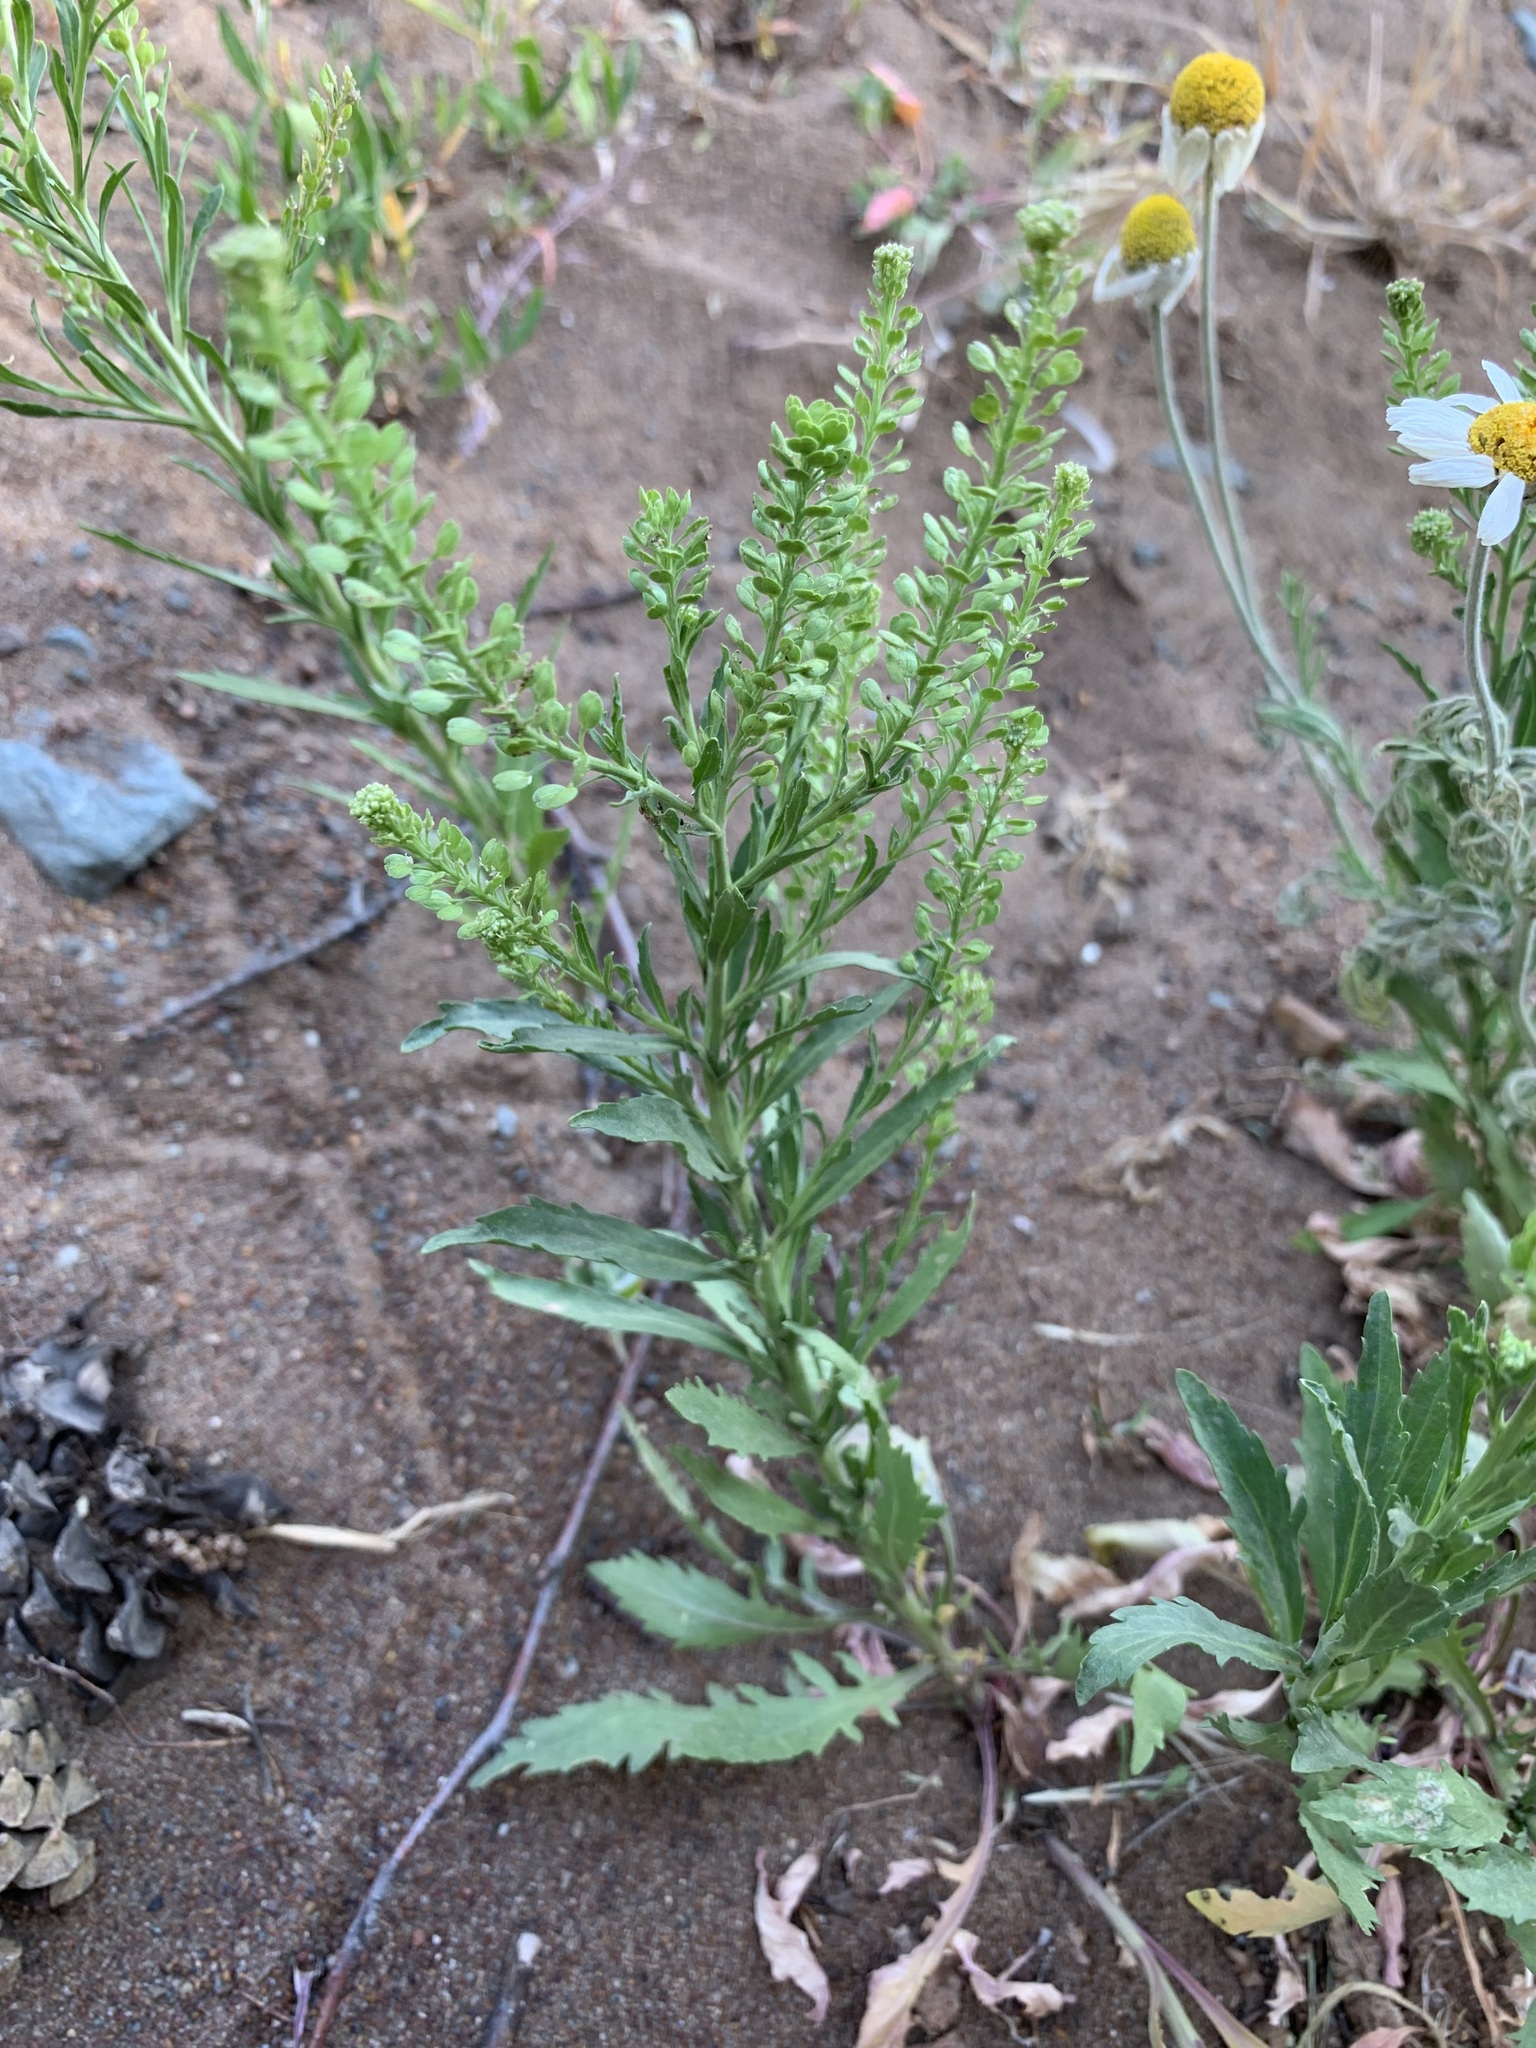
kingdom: Plantae
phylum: Tracheophyta
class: Magnoliopsida
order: Brassicales
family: Brassicaceae
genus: Lepidium
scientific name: Lepidium densiflorum
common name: Miner's pepperwort
